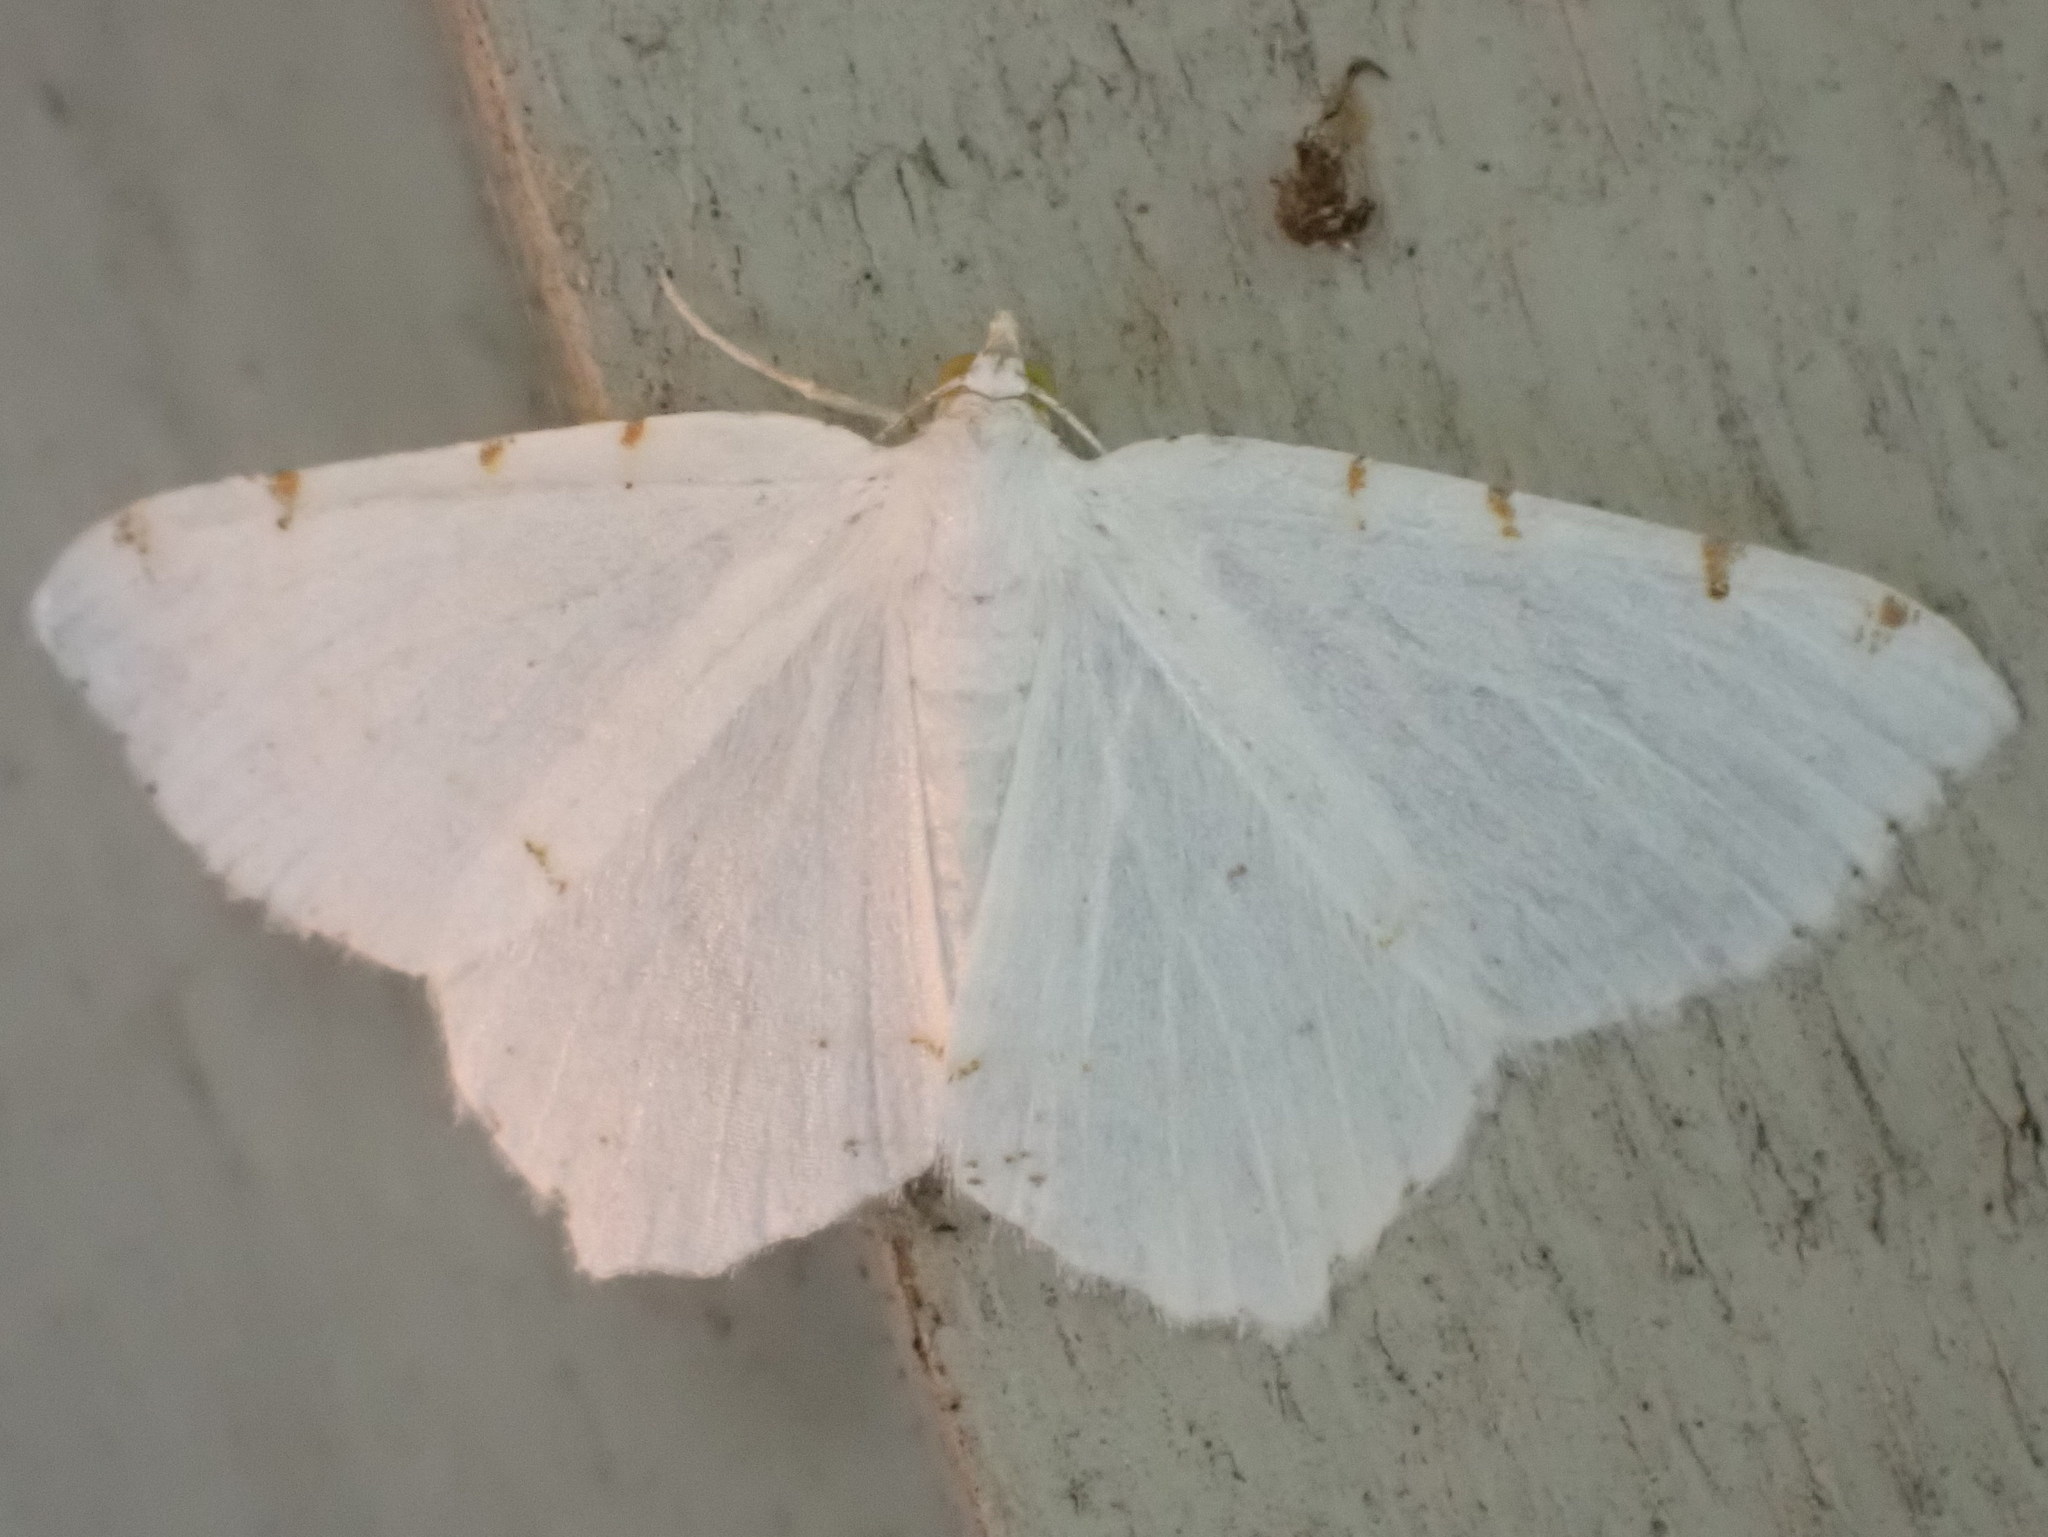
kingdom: Animalia
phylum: Arthropoda
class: Insecta
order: Lepidoptera
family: Geometridae
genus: Macaria
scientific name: Macaria pustularia
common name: Lesser maple spanworm moth
